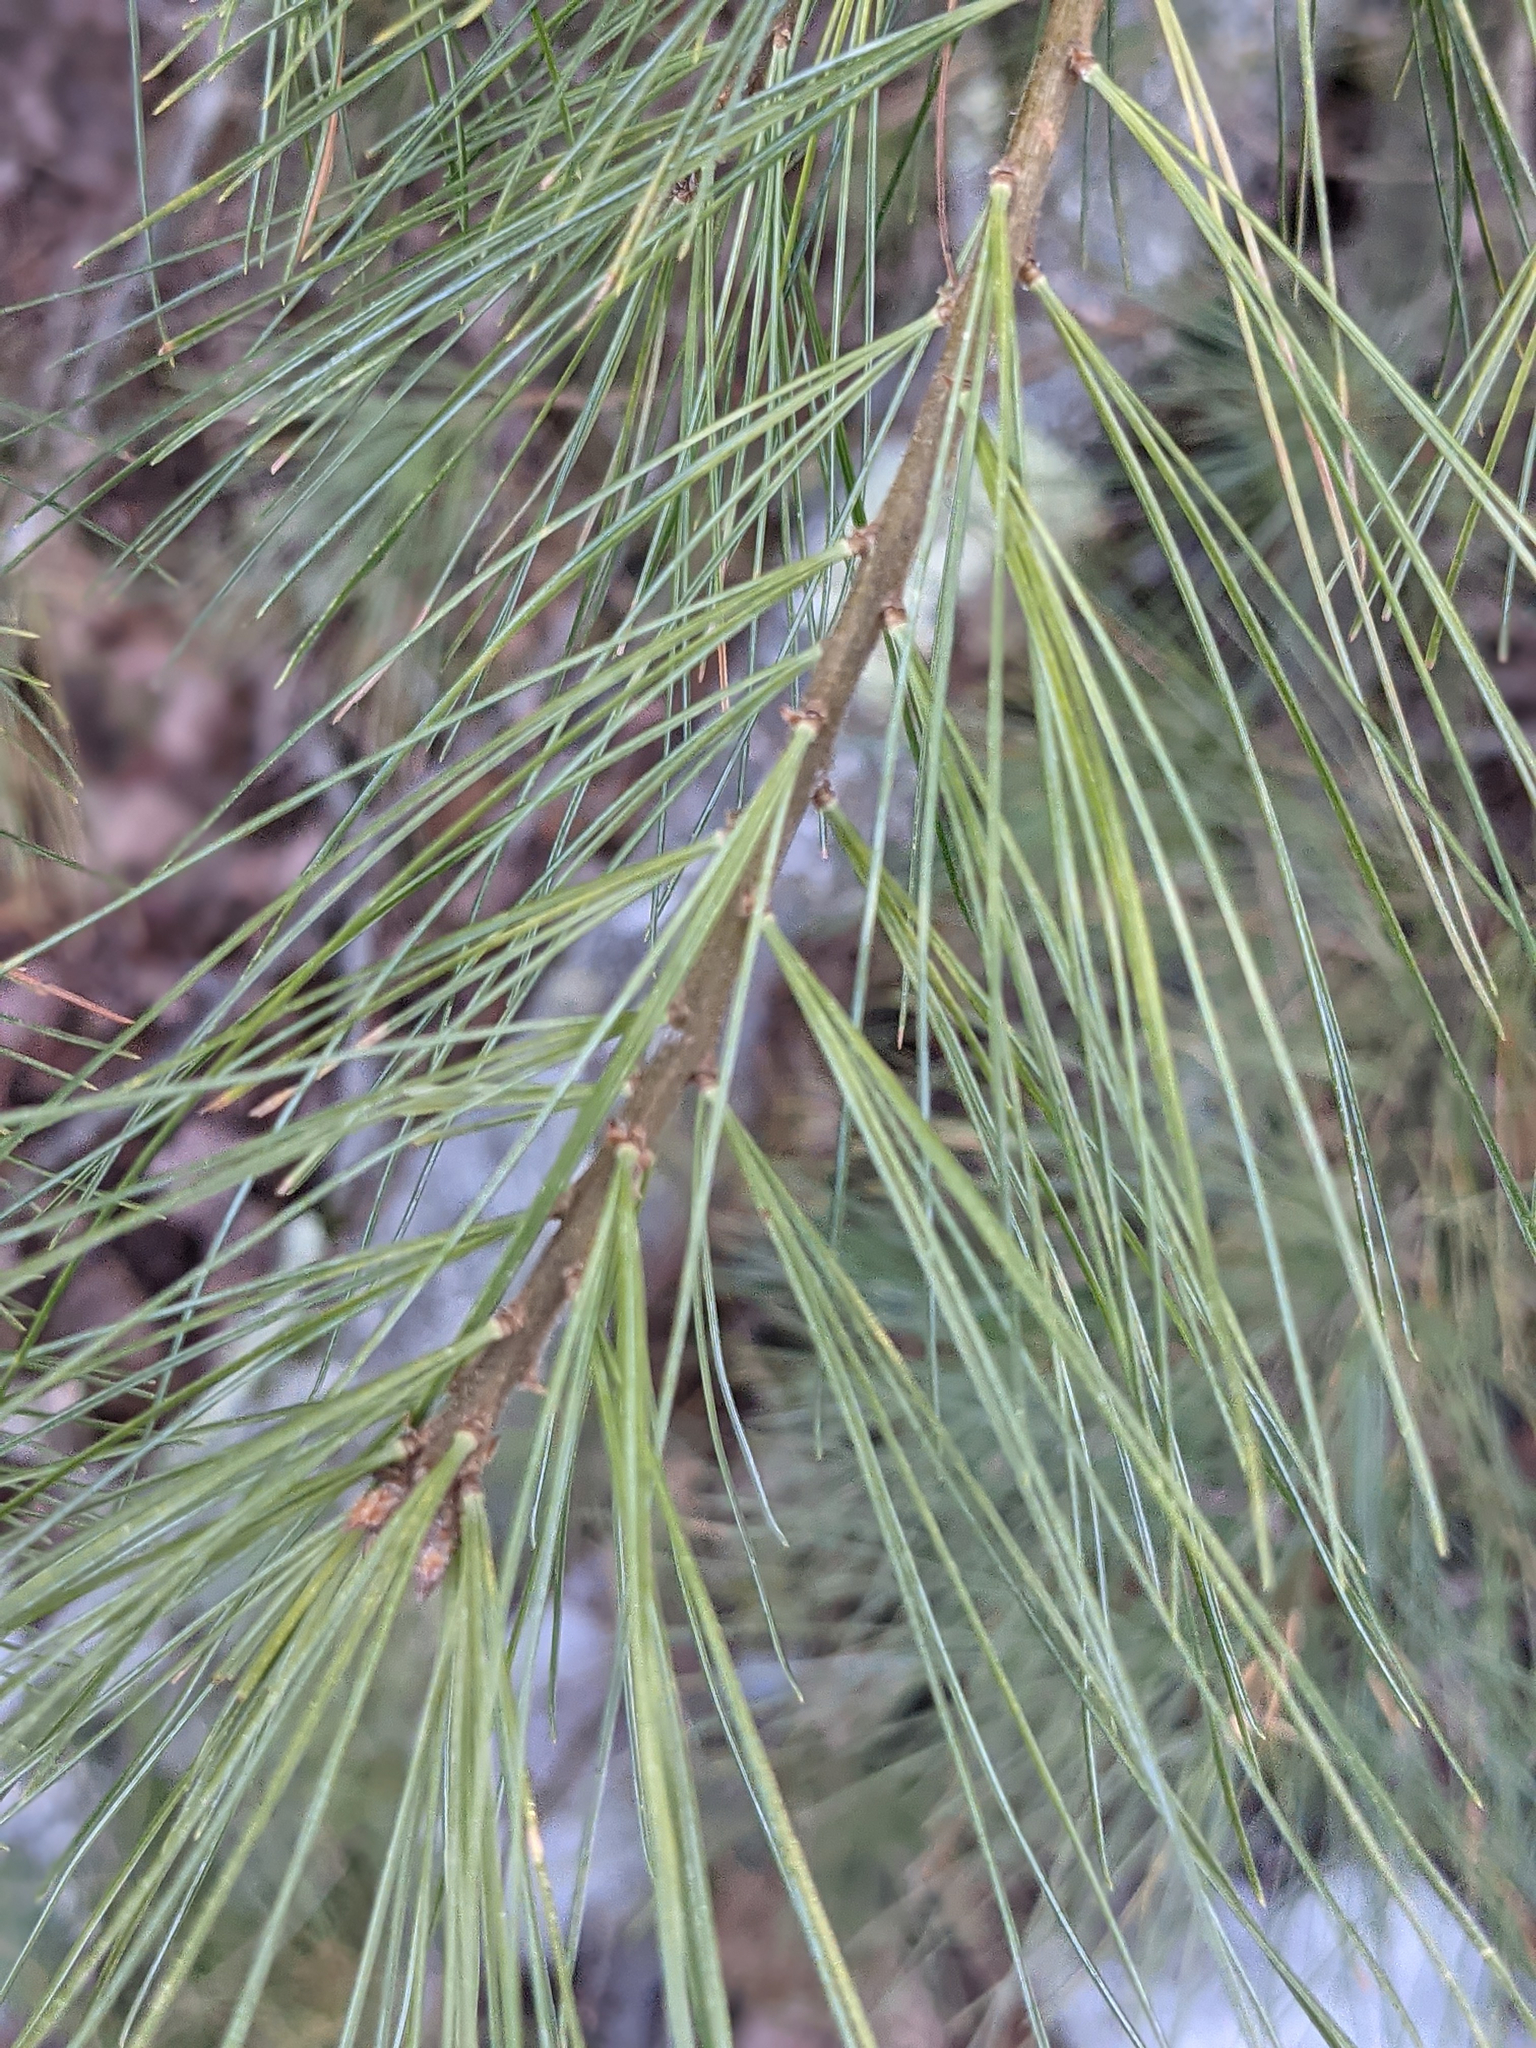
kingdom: Plantae
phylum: Tracheophyta
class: Pinopsida
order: Pinales
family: Pinaceae
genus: Pinus
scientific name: Pinus strobus
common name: Weymouth pine
